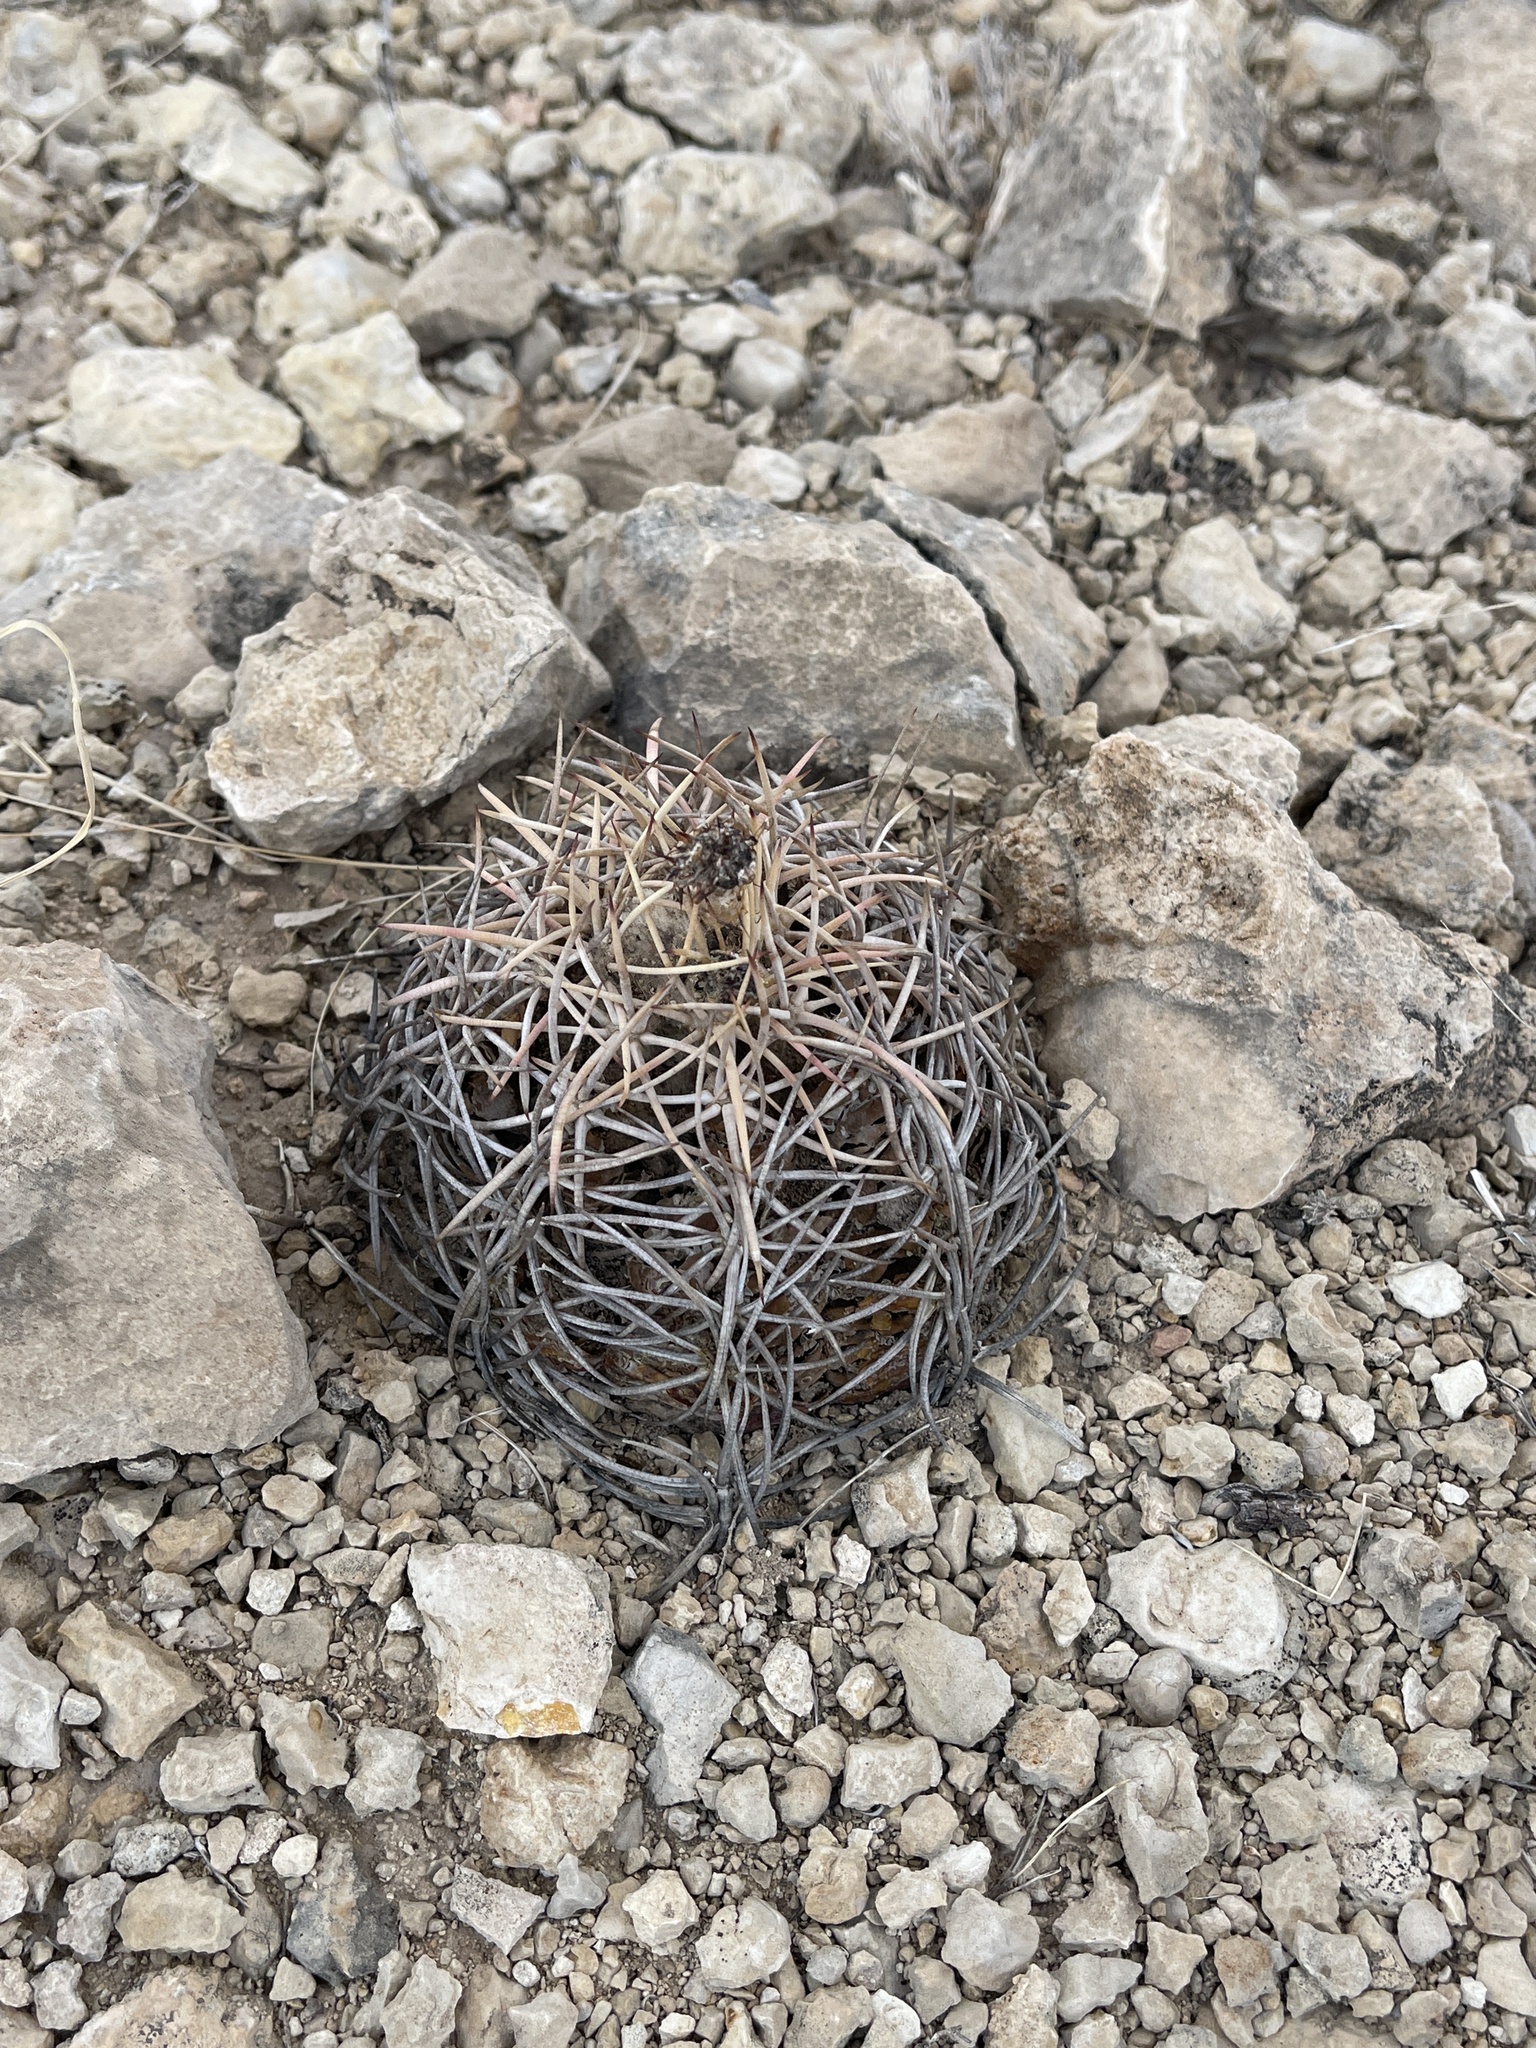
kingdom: Plantae
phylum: Tracheophyta
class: Magnoliopsida
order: Caryophyllales
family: Cactaceae
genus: Echinocactus
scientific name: Echinocactus horizonthalonius
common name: Devilshead
